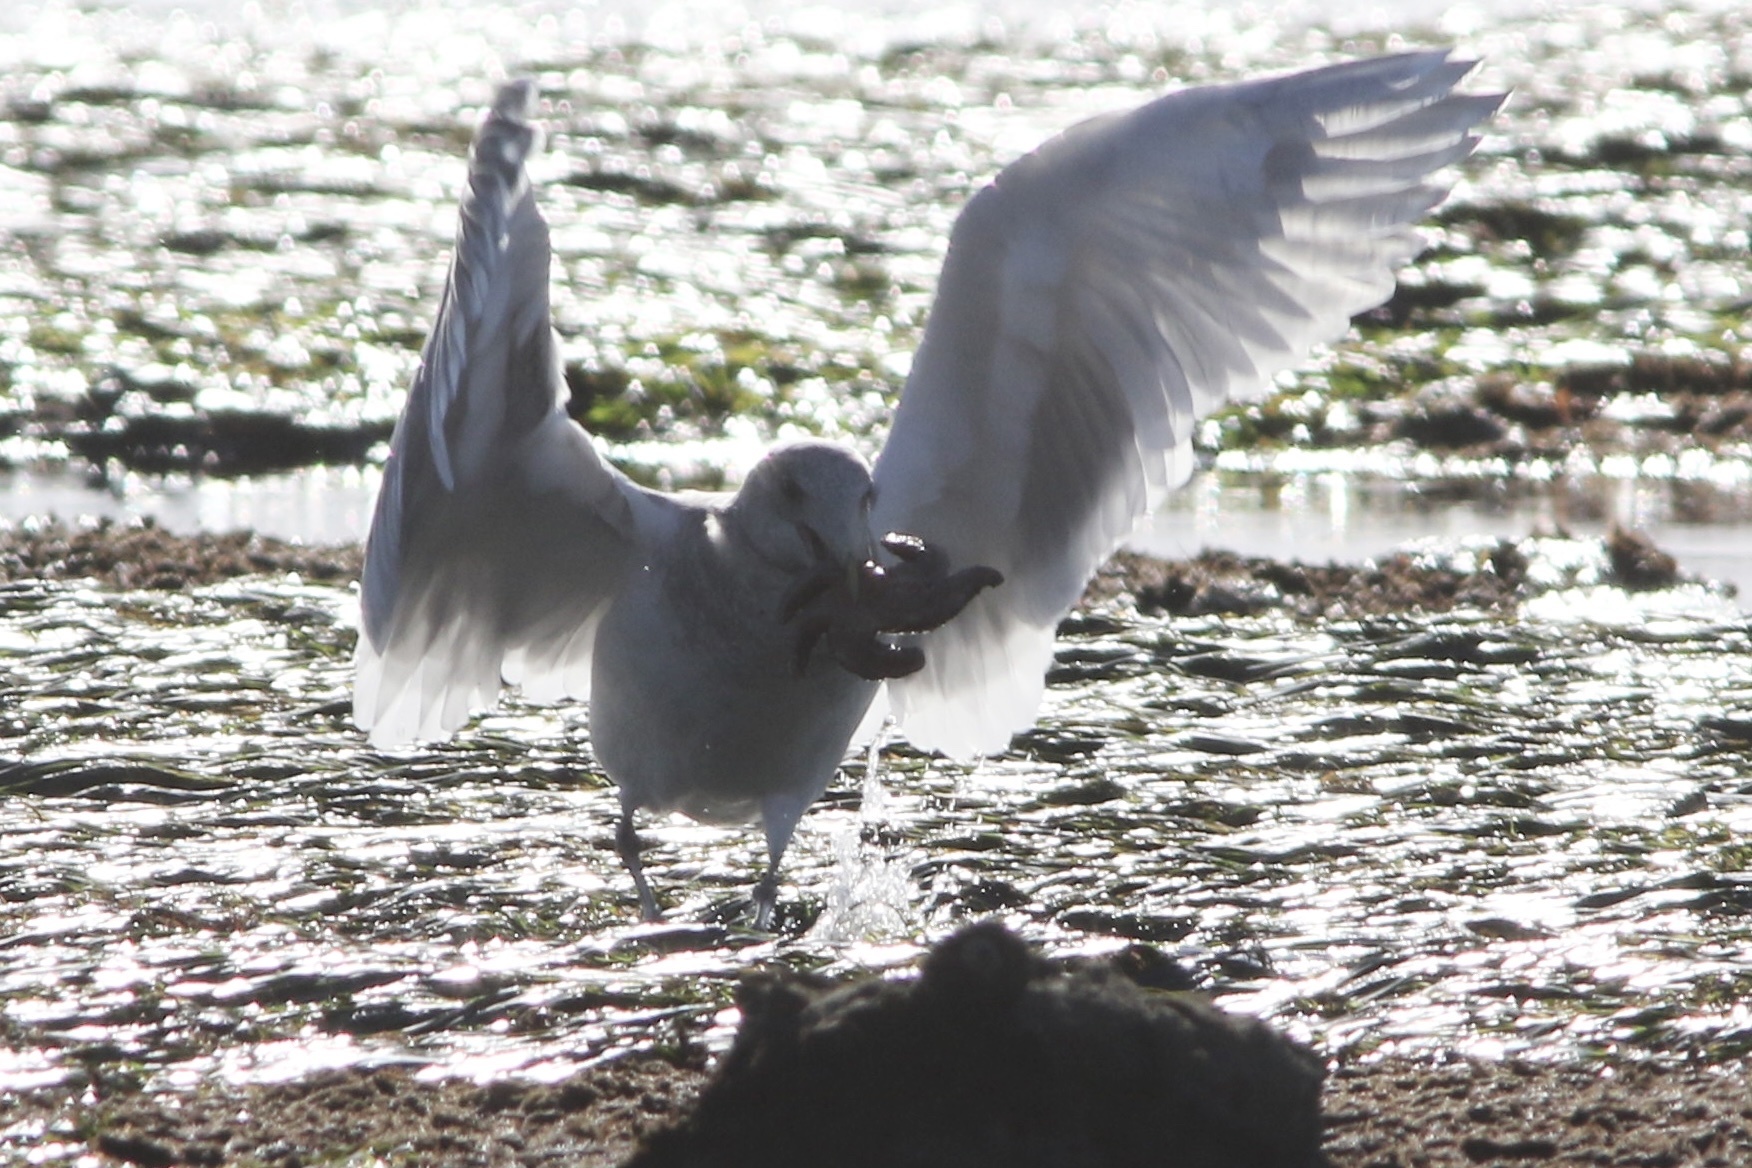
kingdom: Animalia
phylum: Chordata
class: Aves
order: Charadriiformes
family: Laridae
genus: Larus
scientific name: Larus glaucescens
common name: Glaucous-winged gull
